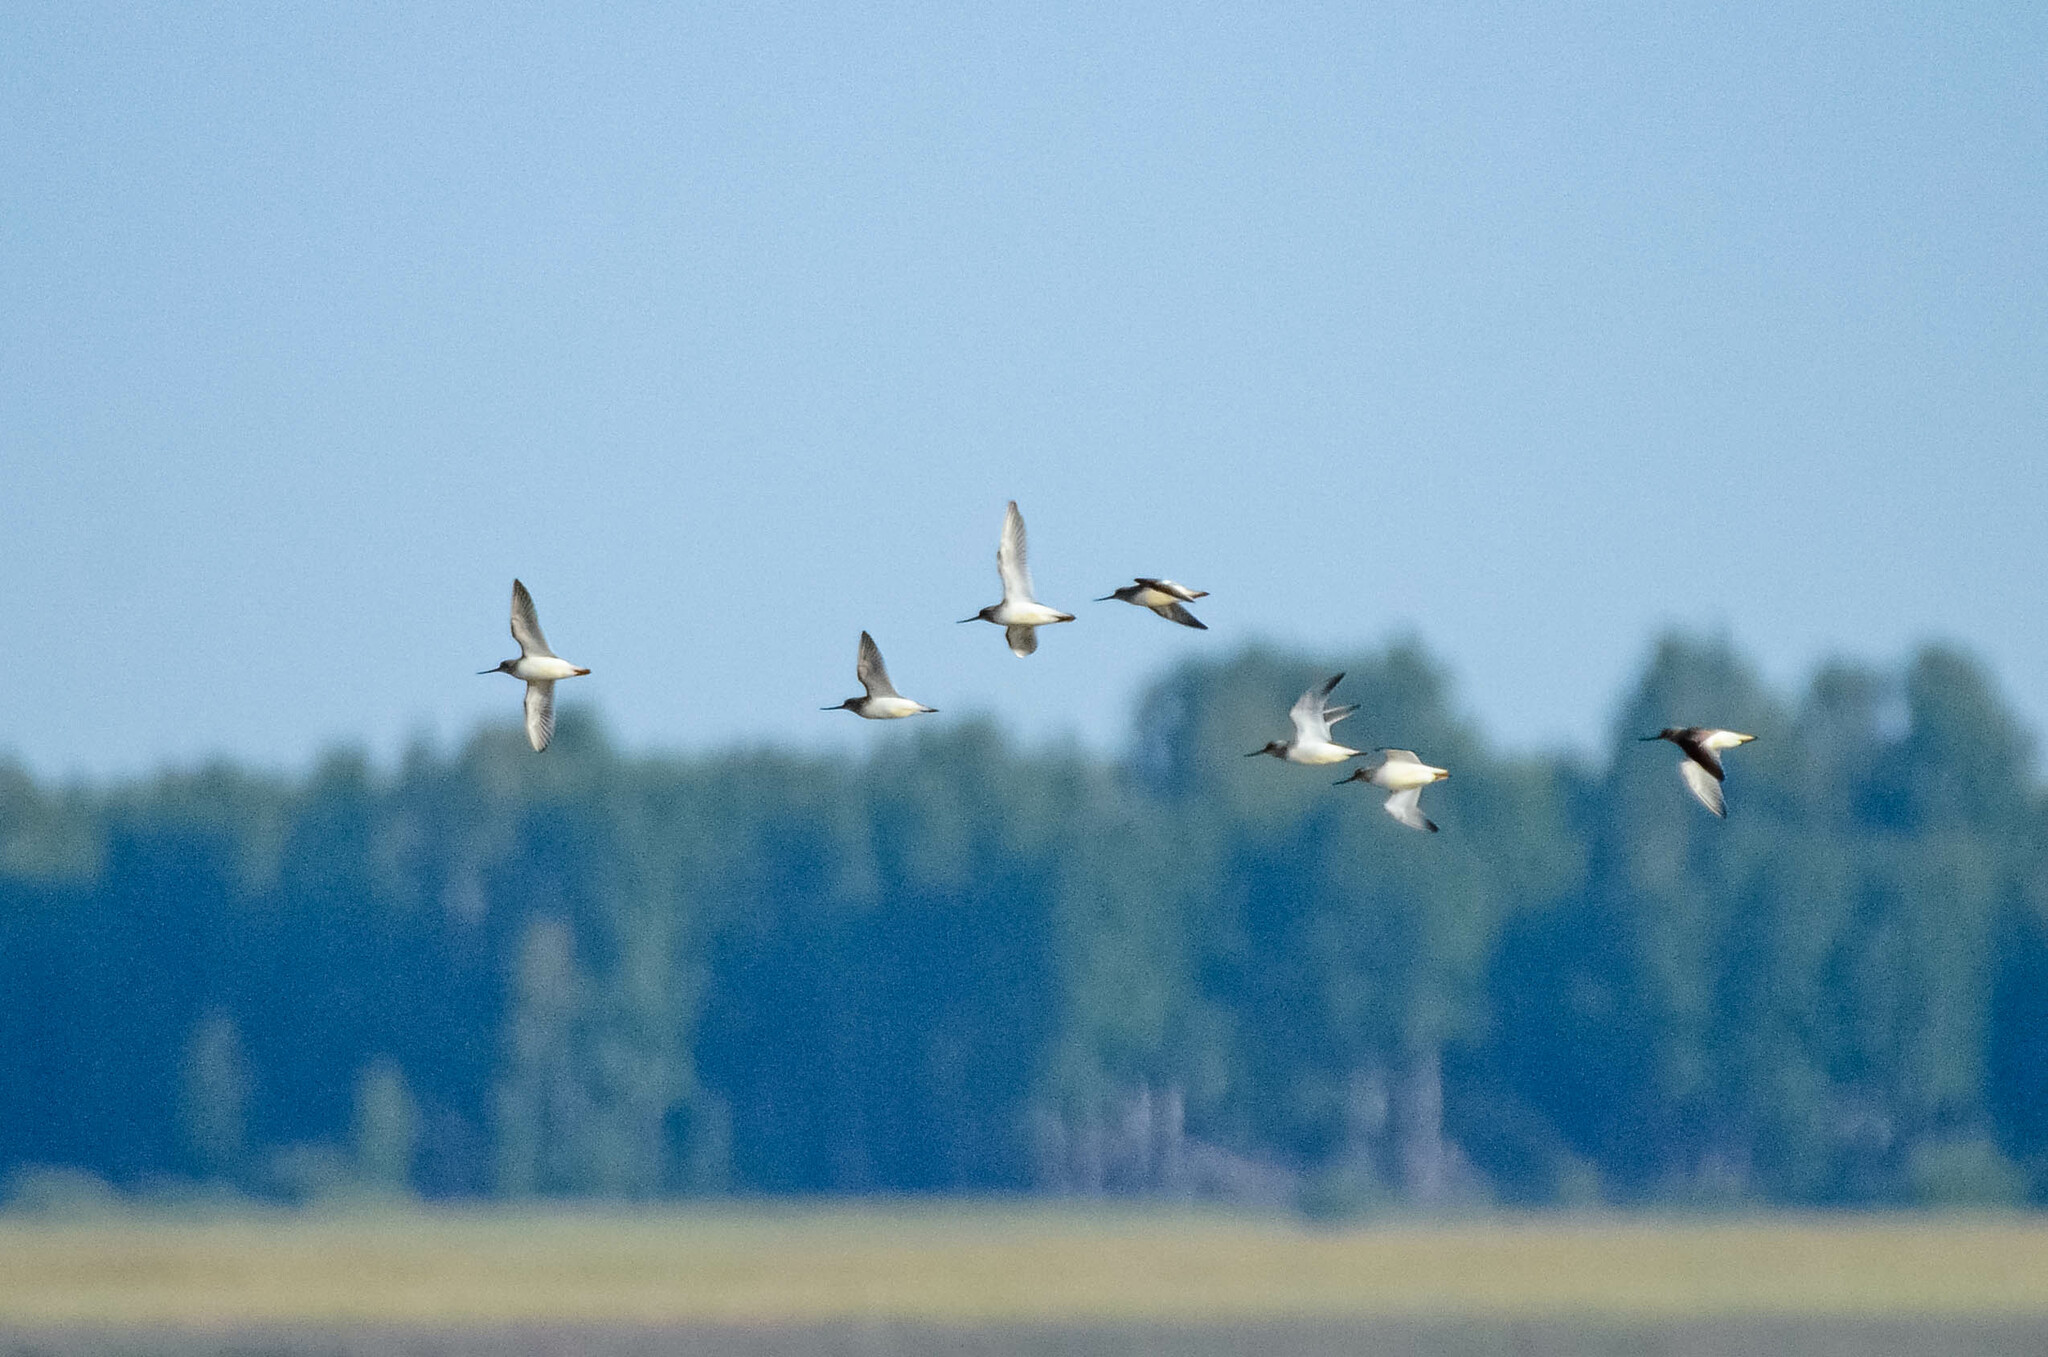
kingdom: Animalia
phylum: Chordata
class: Aves
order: Charadriiformes
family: Scolopacidae
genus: Xenus
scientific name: Xenus cinereus
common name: Terek sandpiper
